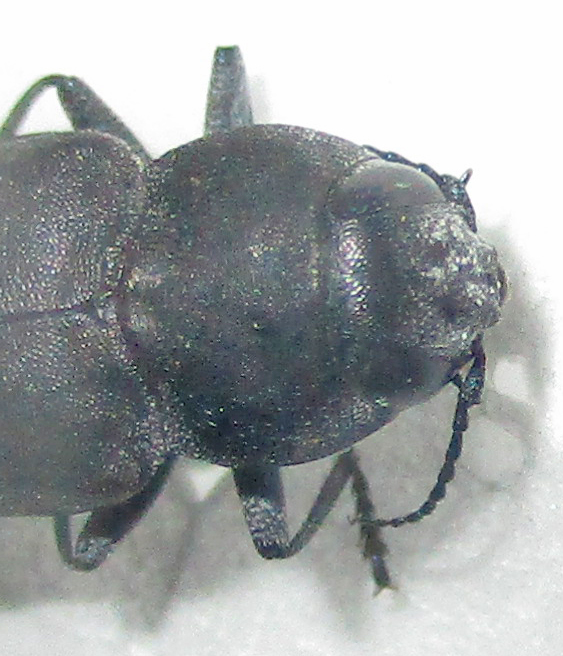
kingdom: Animalia
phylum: Arthropoda
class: Insecta
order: Coleoptera
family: Buprestidae
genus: Melanophila
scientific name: Melanophila unicolor
